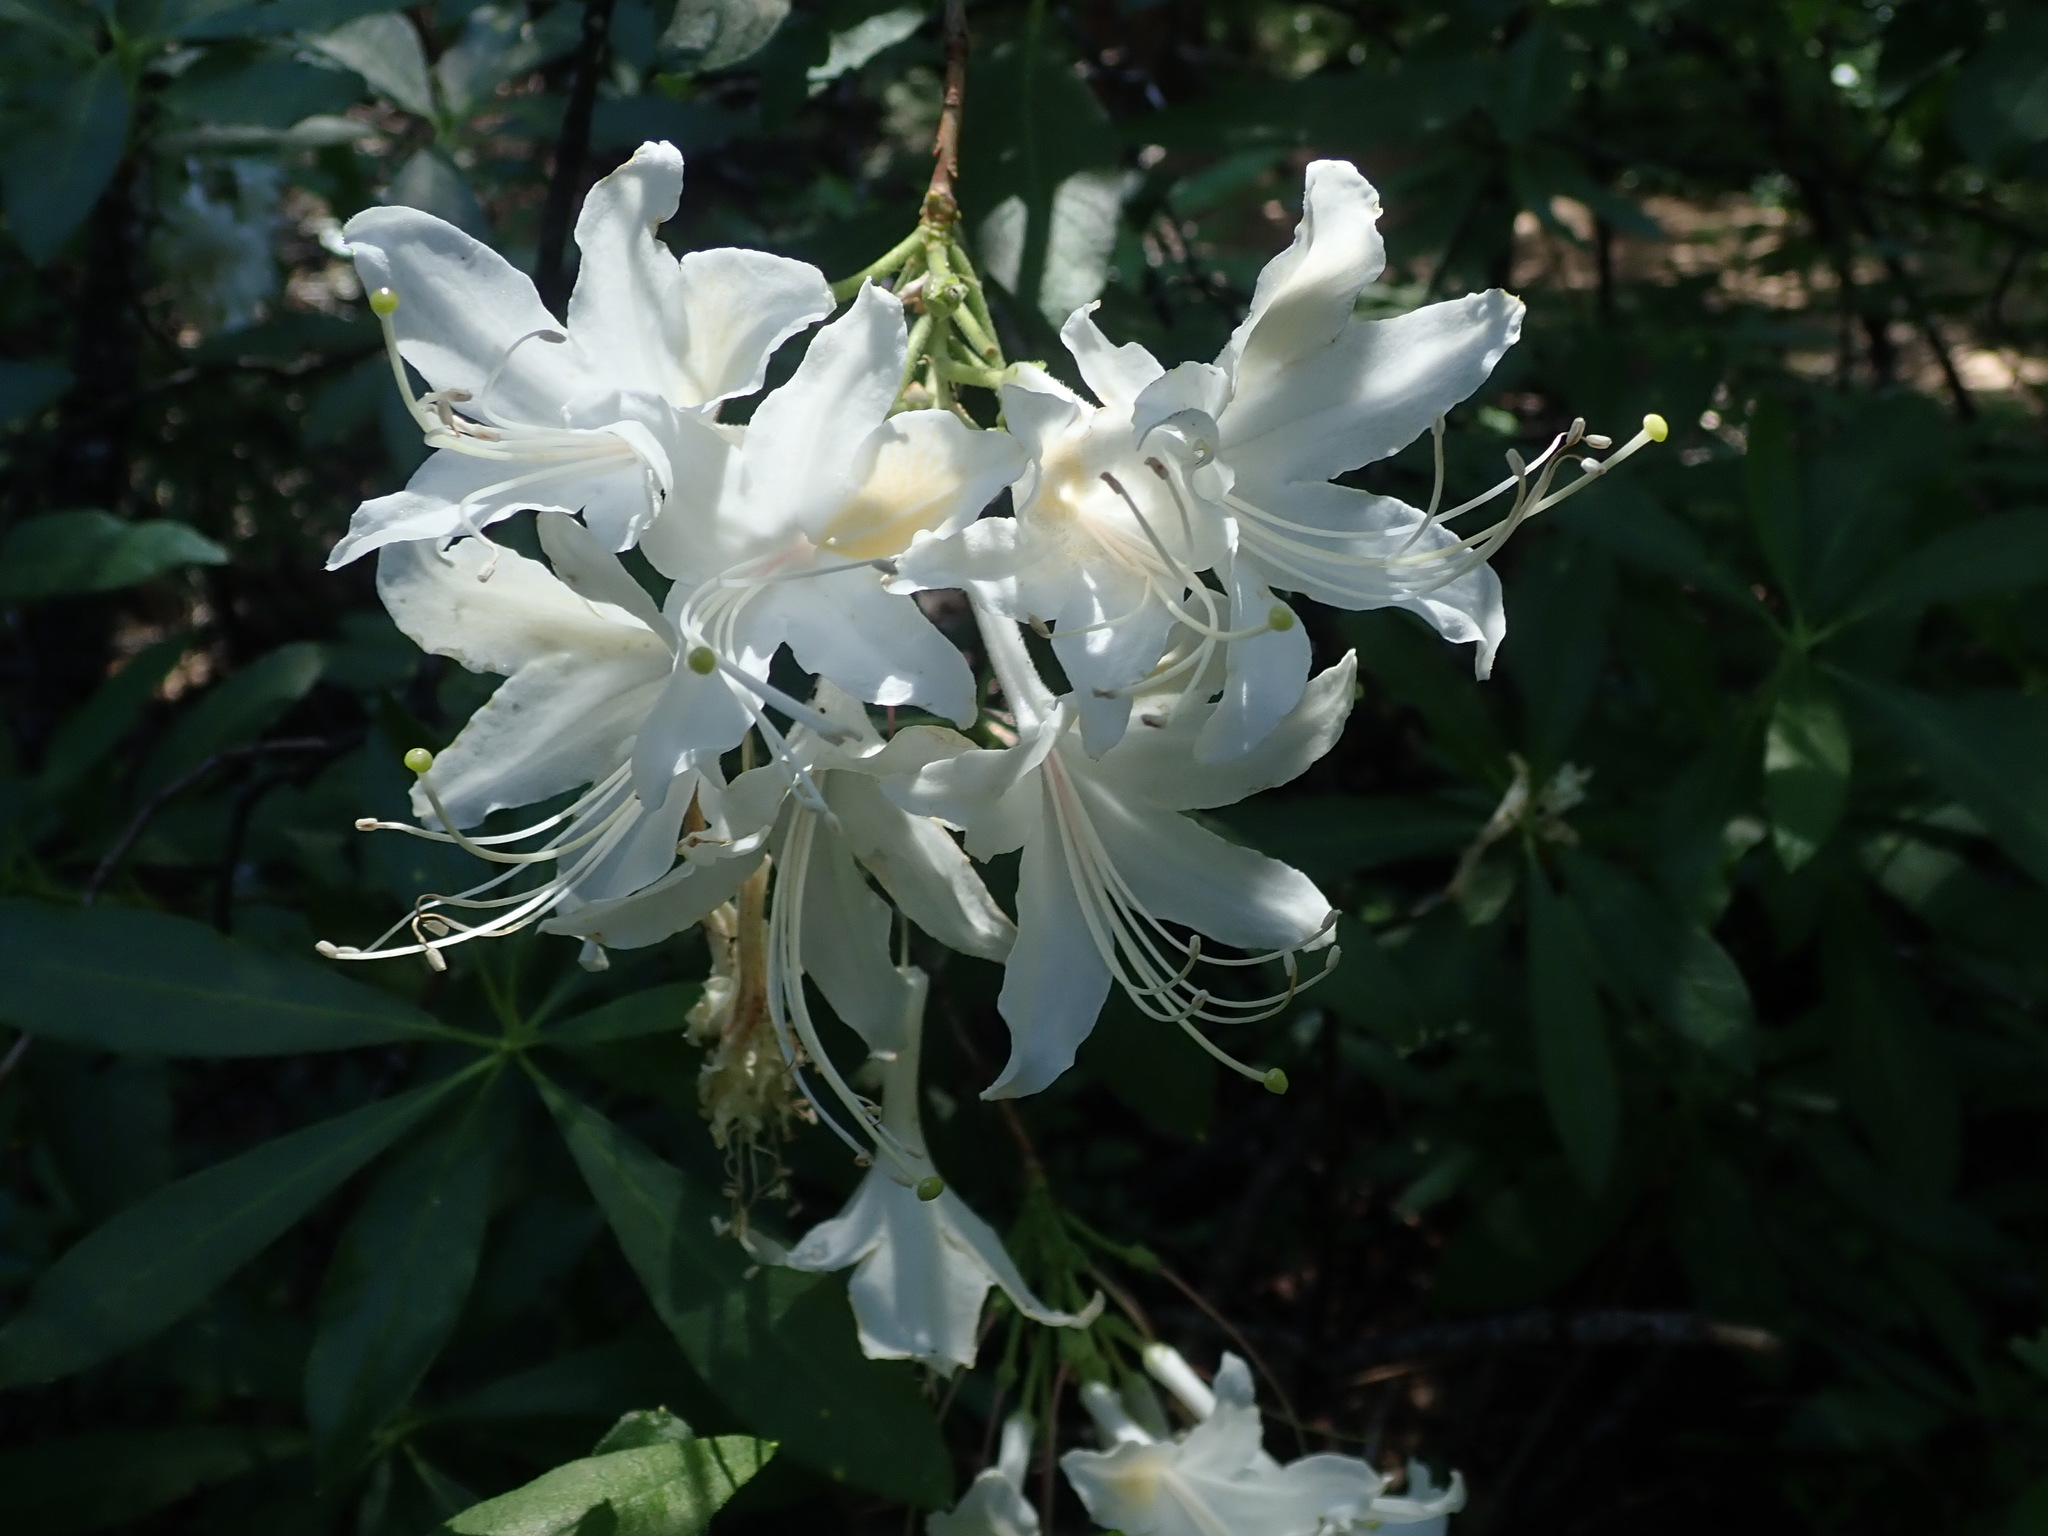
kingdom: Plantae
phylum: Tracheophyta
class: Magnoliopsida
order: Ericales
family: Ericaceae
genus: Rhododendron
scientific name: Rhododendron occidentale
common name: Western azalea
